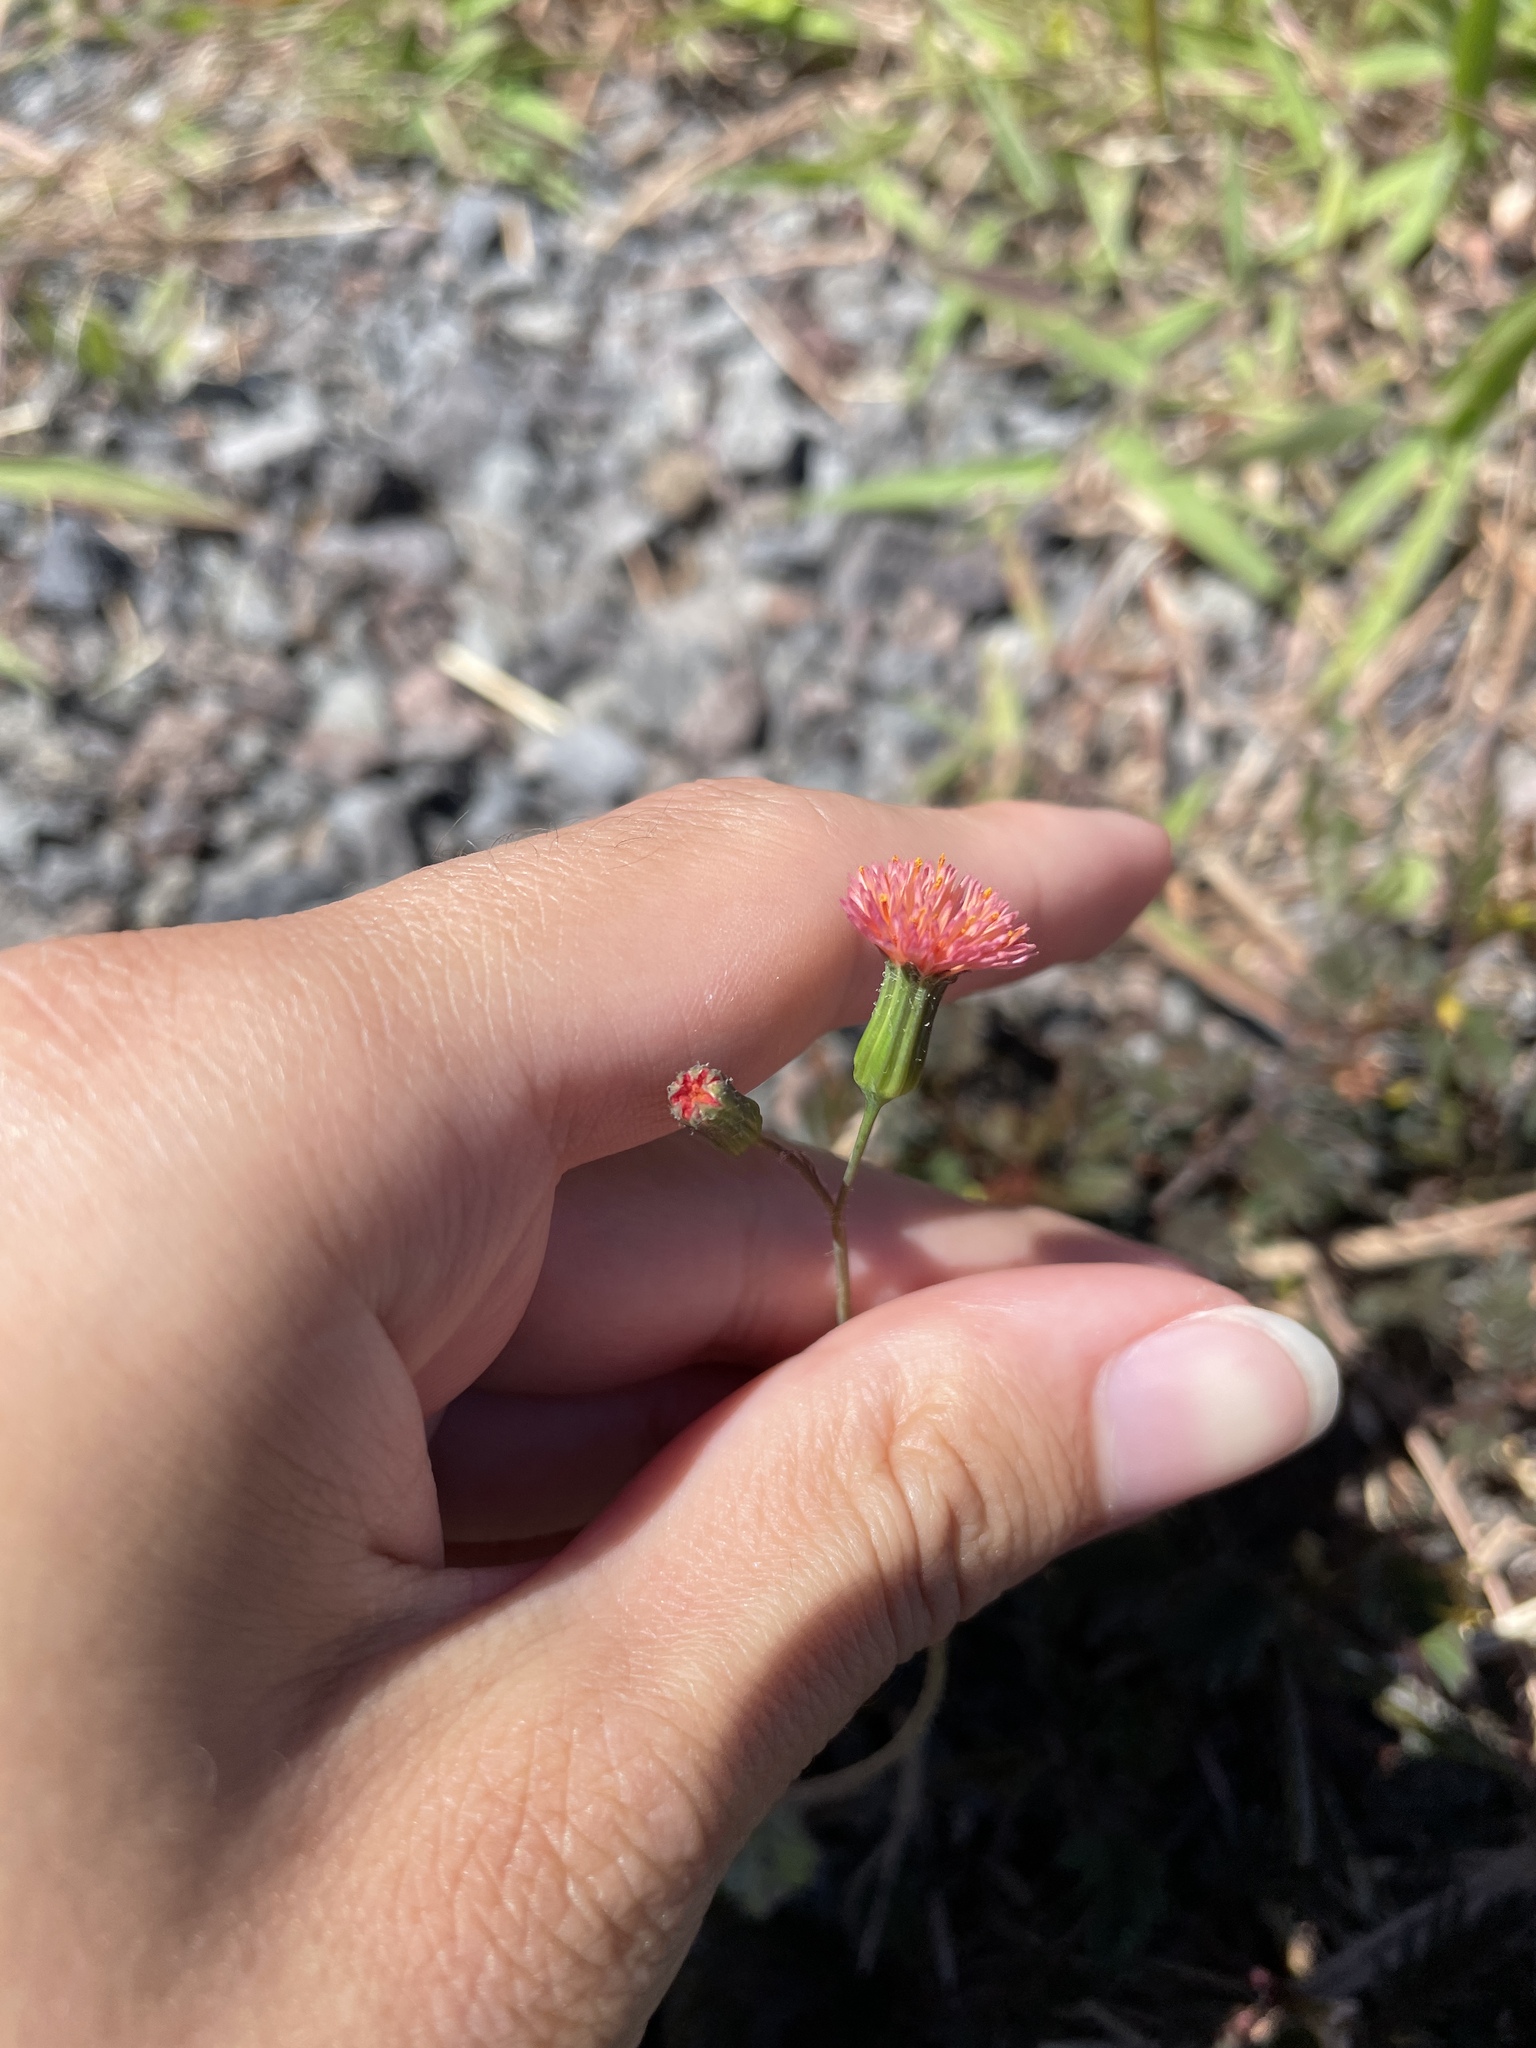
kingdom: Plantae
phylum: Tracheophyta
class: Magnoliopsida
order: Asterales
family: Asteraceae
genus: Emilia
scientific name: Emilia fosbergii
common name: Florida tasselflower
